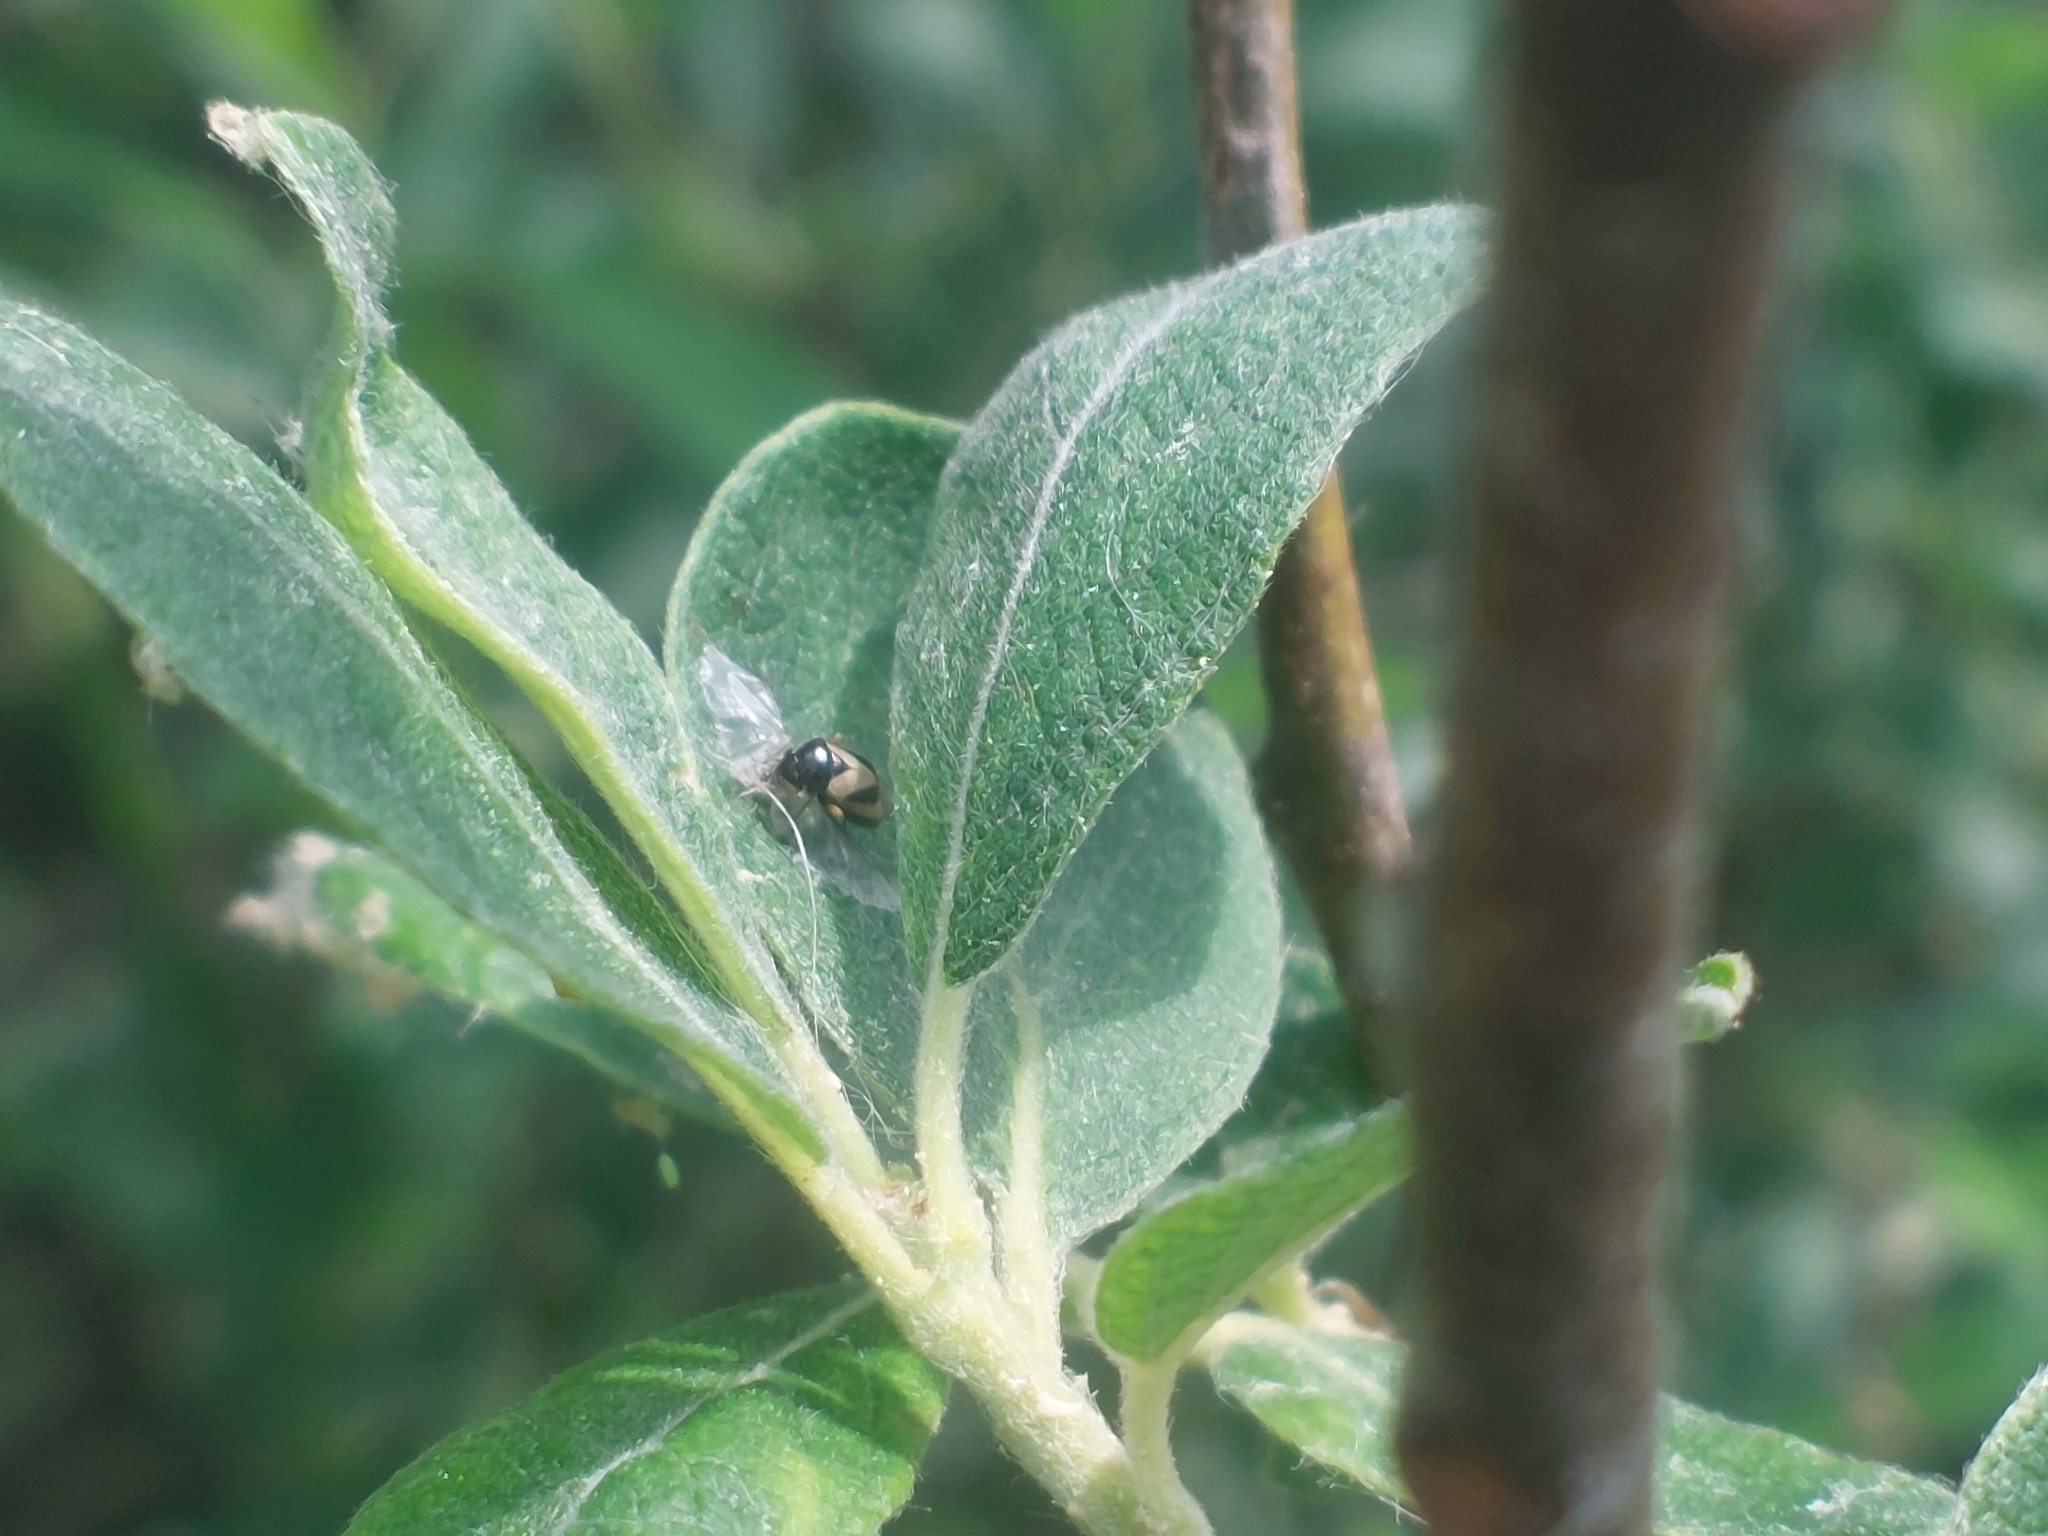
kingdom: Animalia
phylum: Arthropoda
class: Insecta
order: Hemiptera
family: Miridae
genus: Salicarus
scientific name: Salicarus roseri
